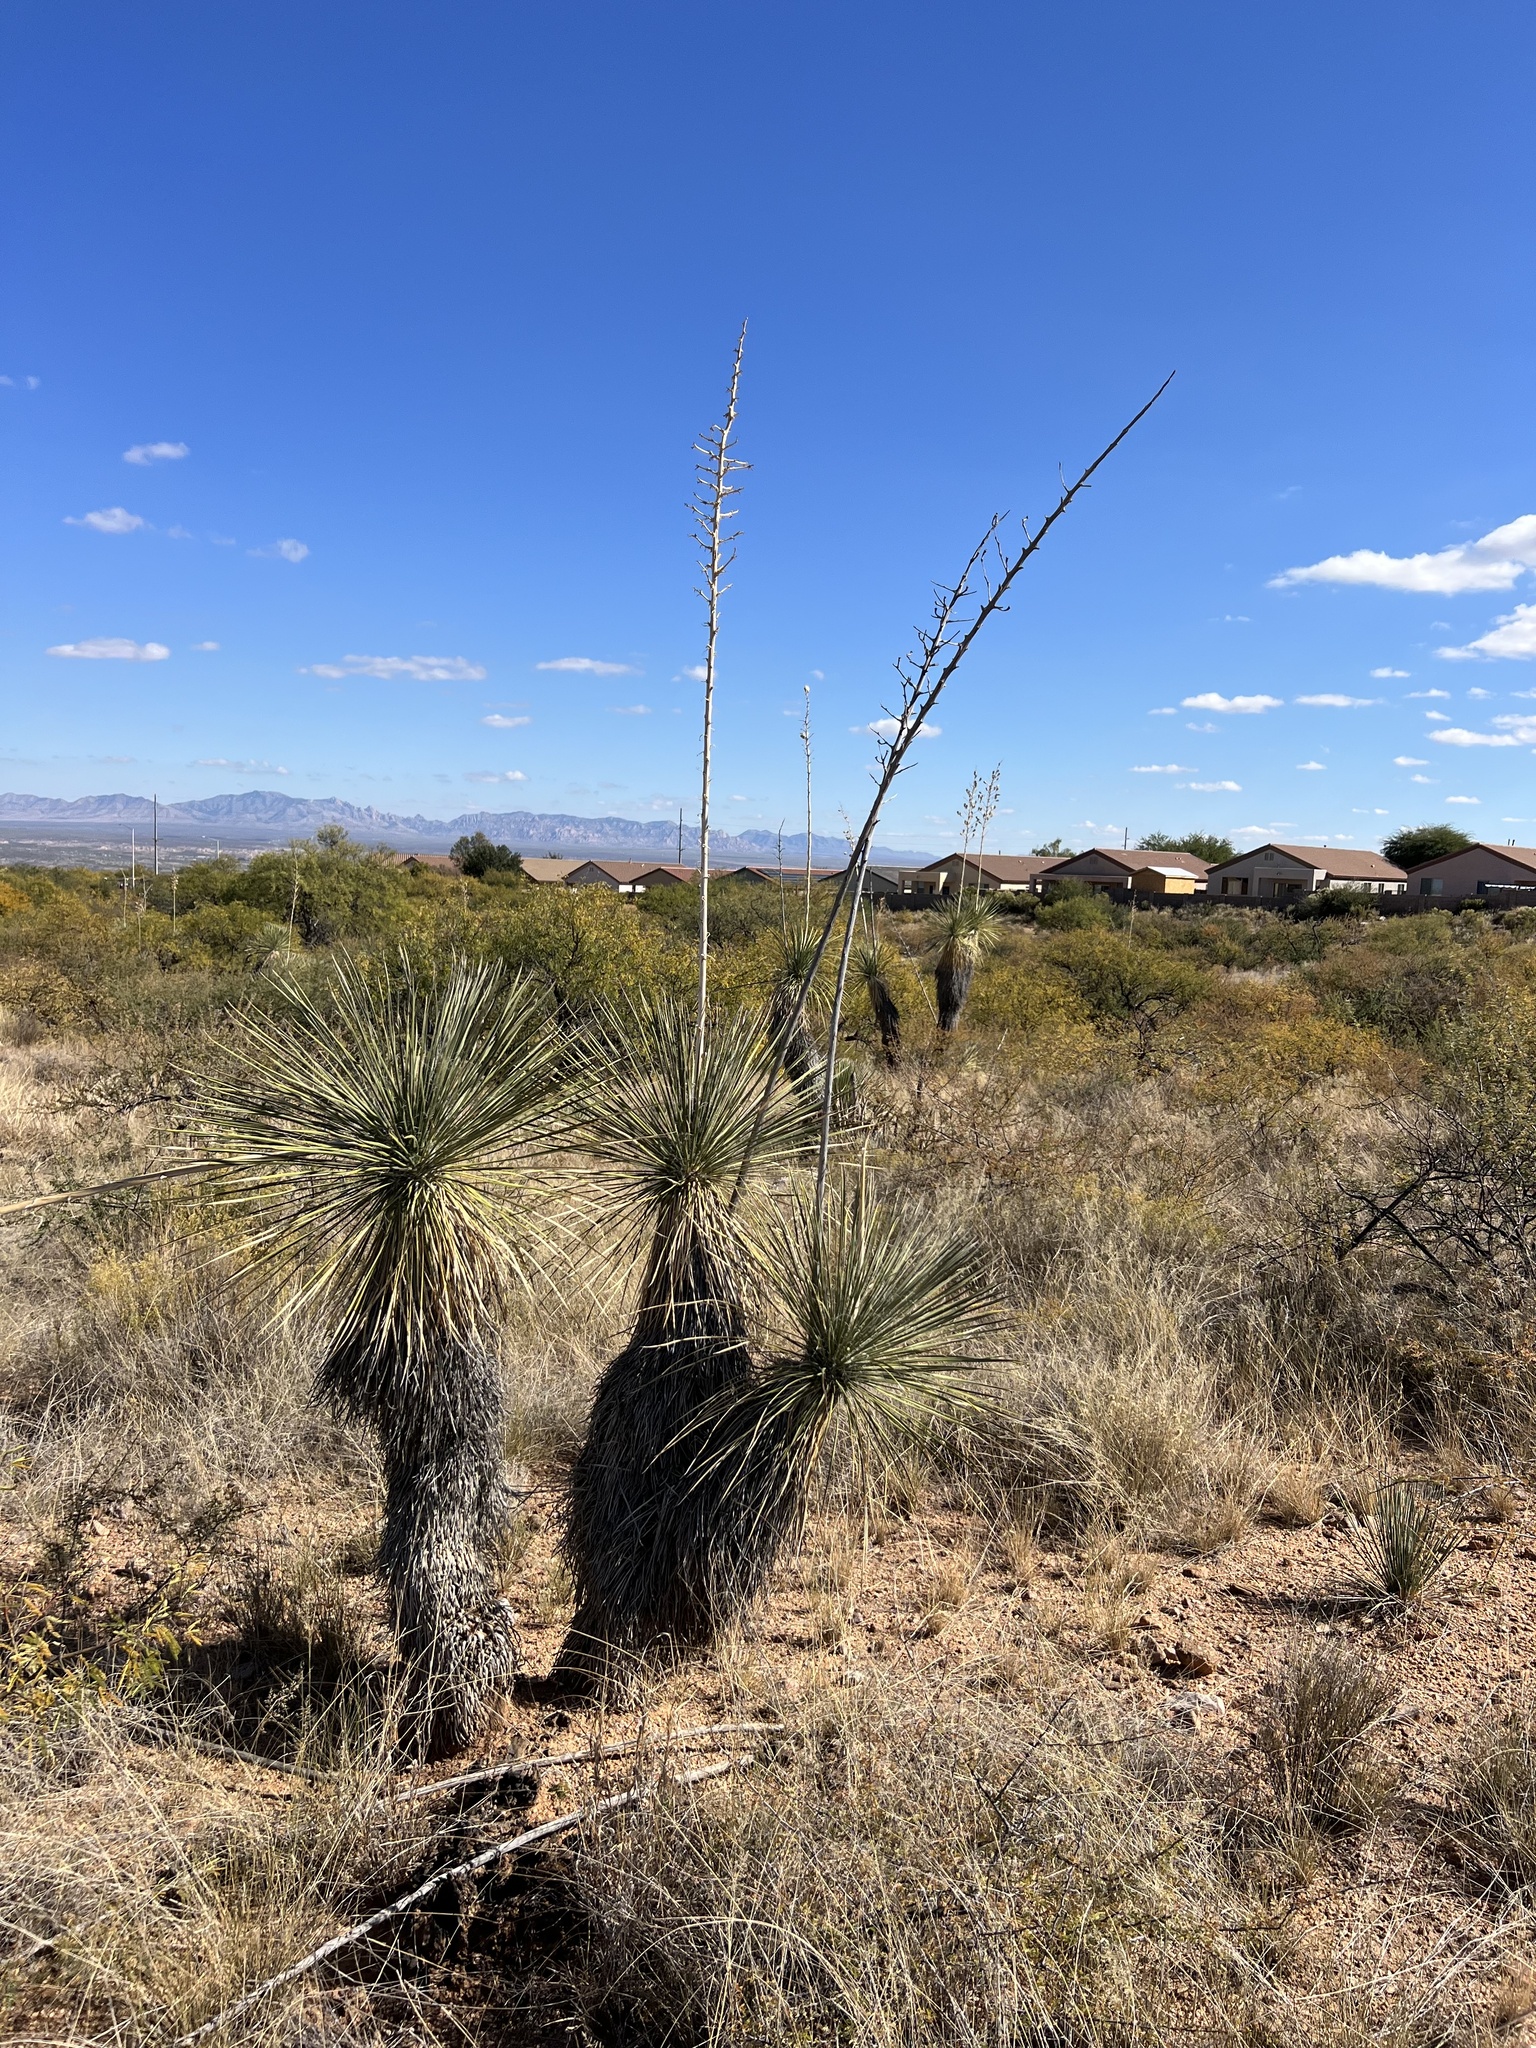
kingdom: Plantae
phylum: Tracheophyta
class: Liliopsida
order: Asparagales
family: Asparagaceae
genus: Yucca
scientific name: Yucca elata
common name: Palmella
